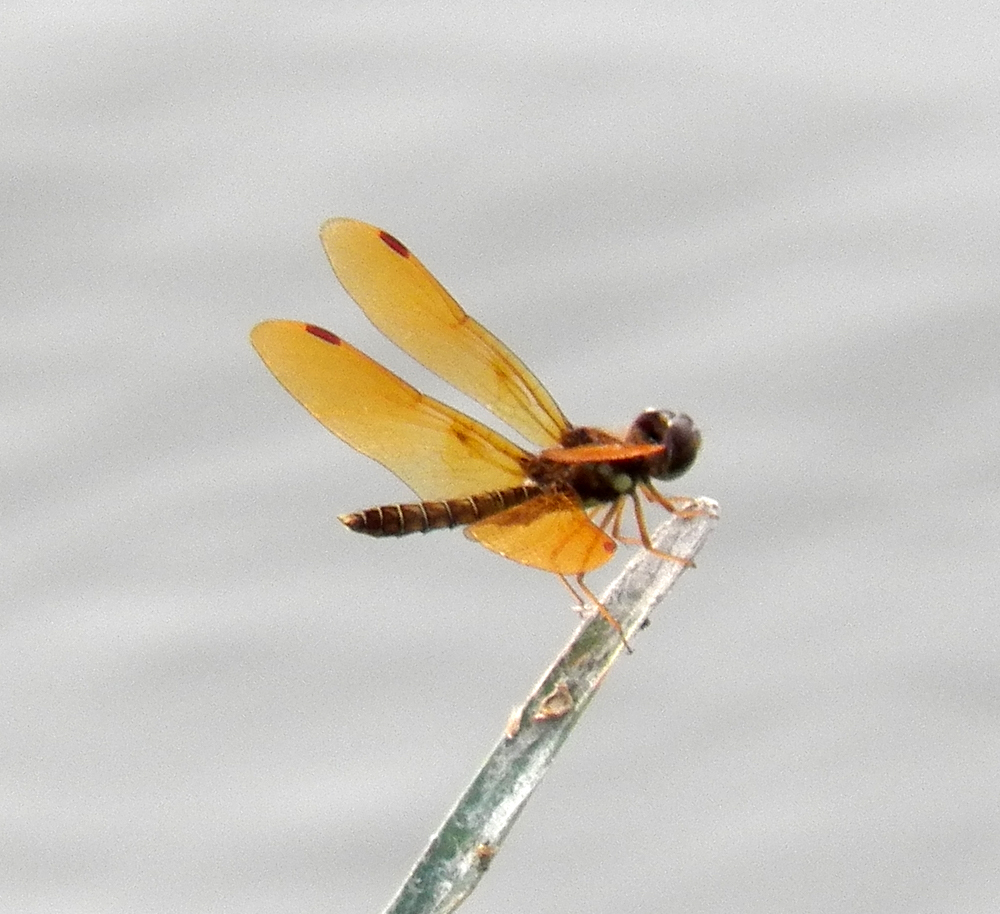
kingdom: Animalia
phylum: Arthropoda
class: Insecta
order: Odonata
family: Libellulidae
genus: Perithemis
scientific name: Perithemis tenera
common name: Eastern amberwing
